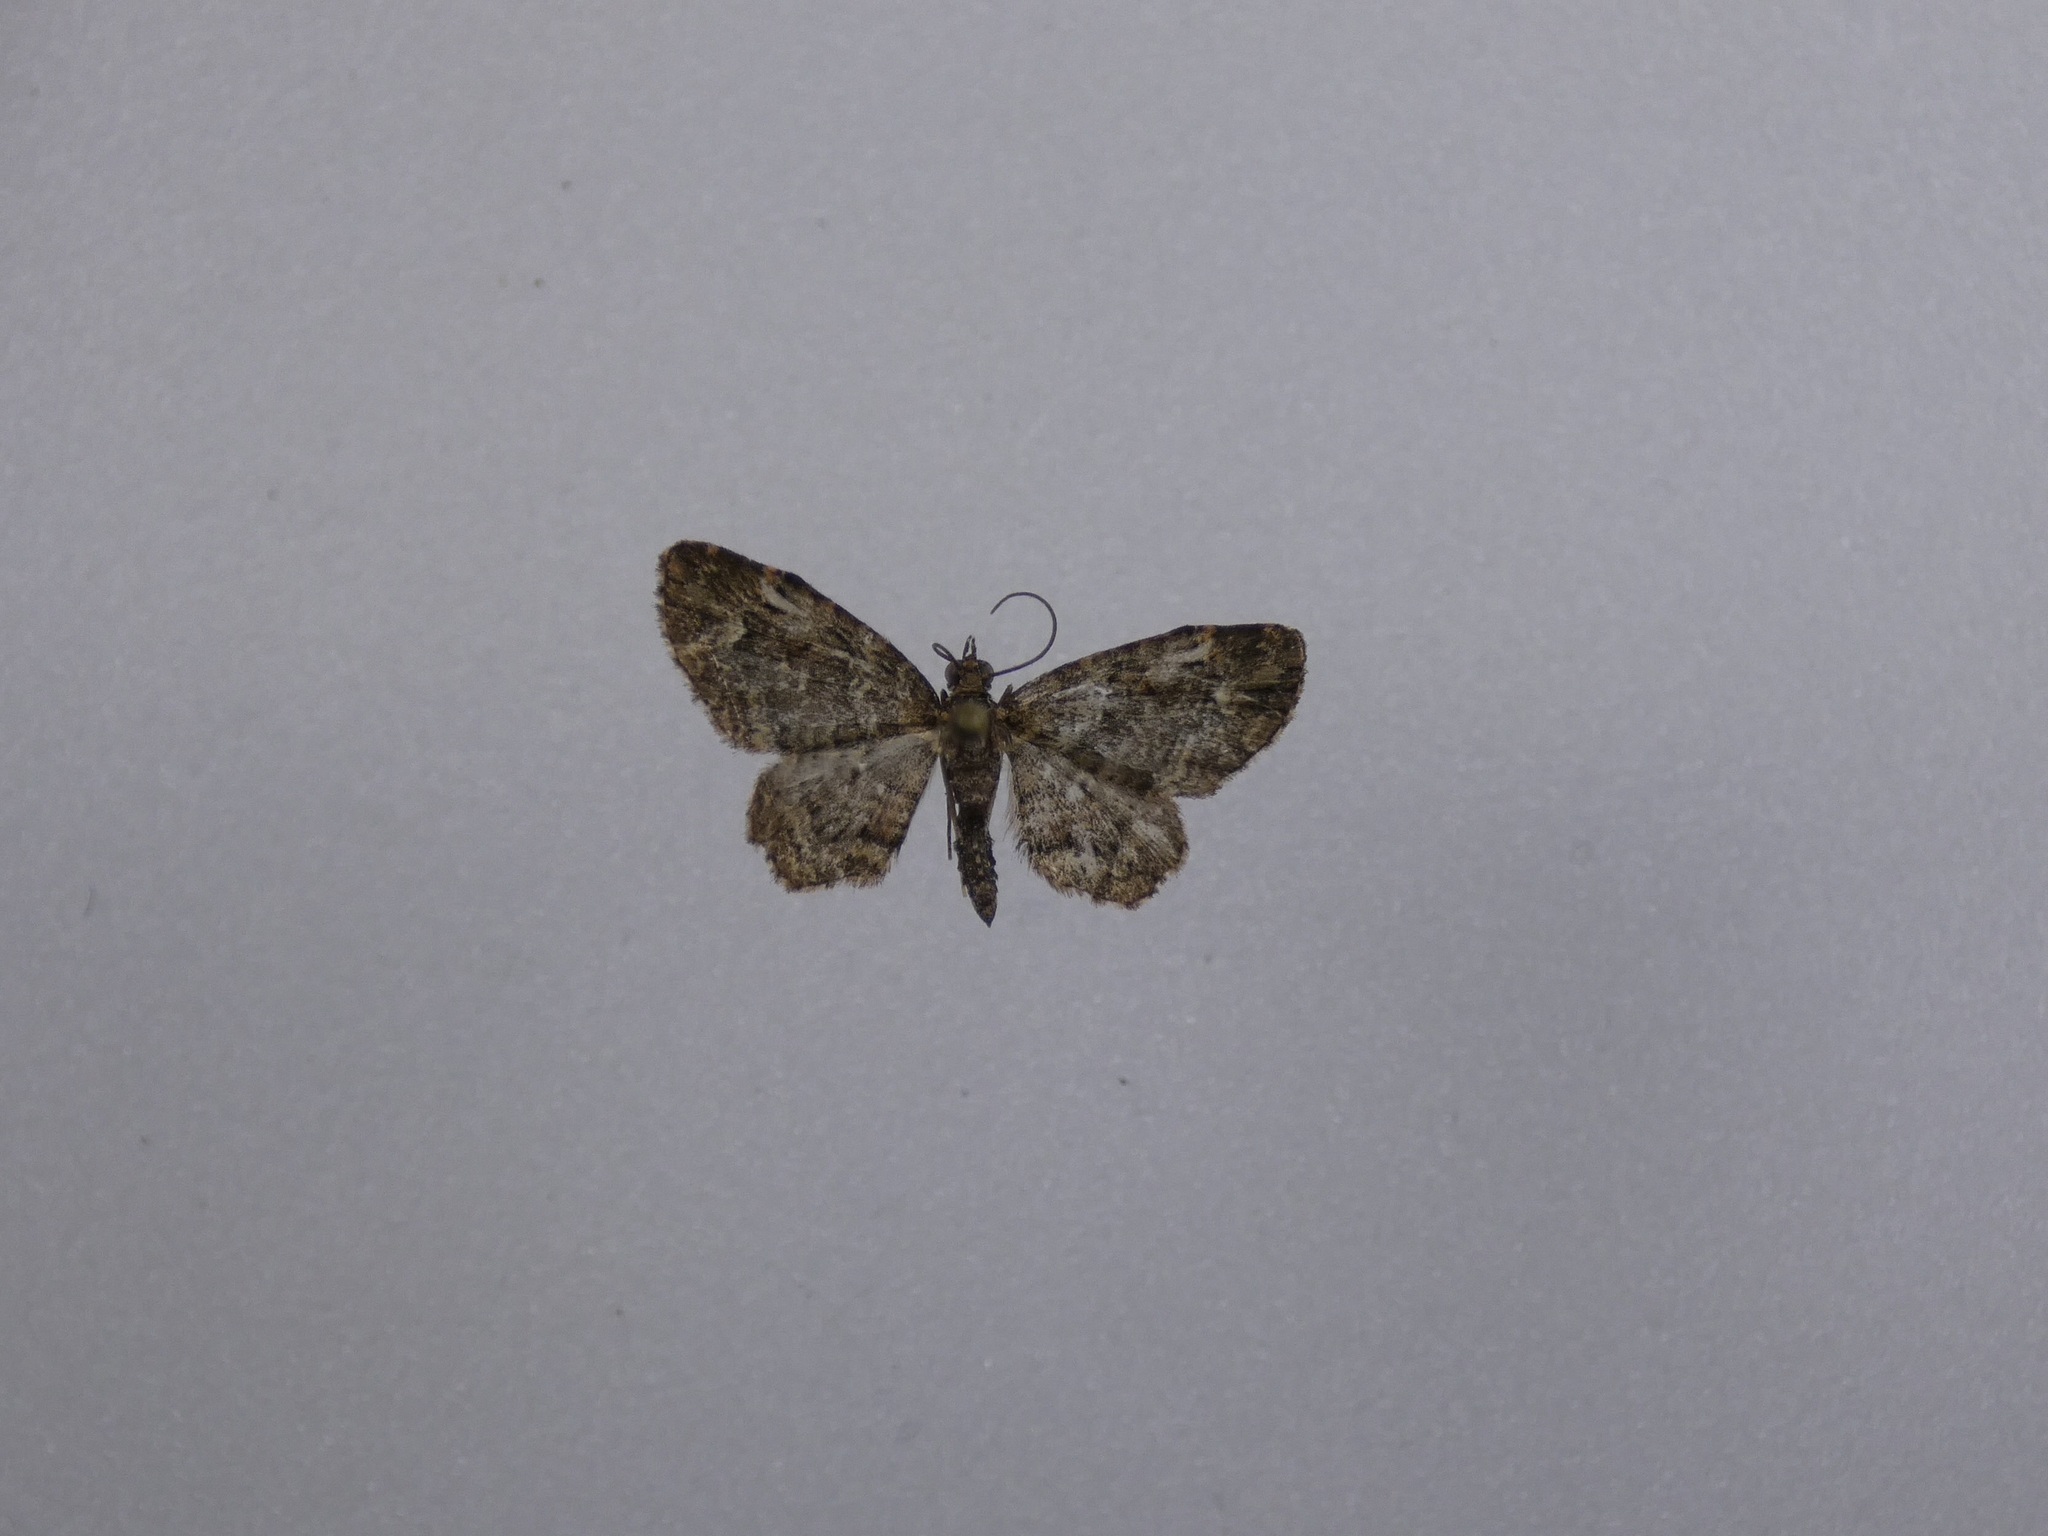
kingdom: Animalia
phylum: Arthropoda
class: Insecta
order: Lepidoptera
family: Geometridae
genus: Pasiphilodes
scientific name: Pasiphilodes testulata
